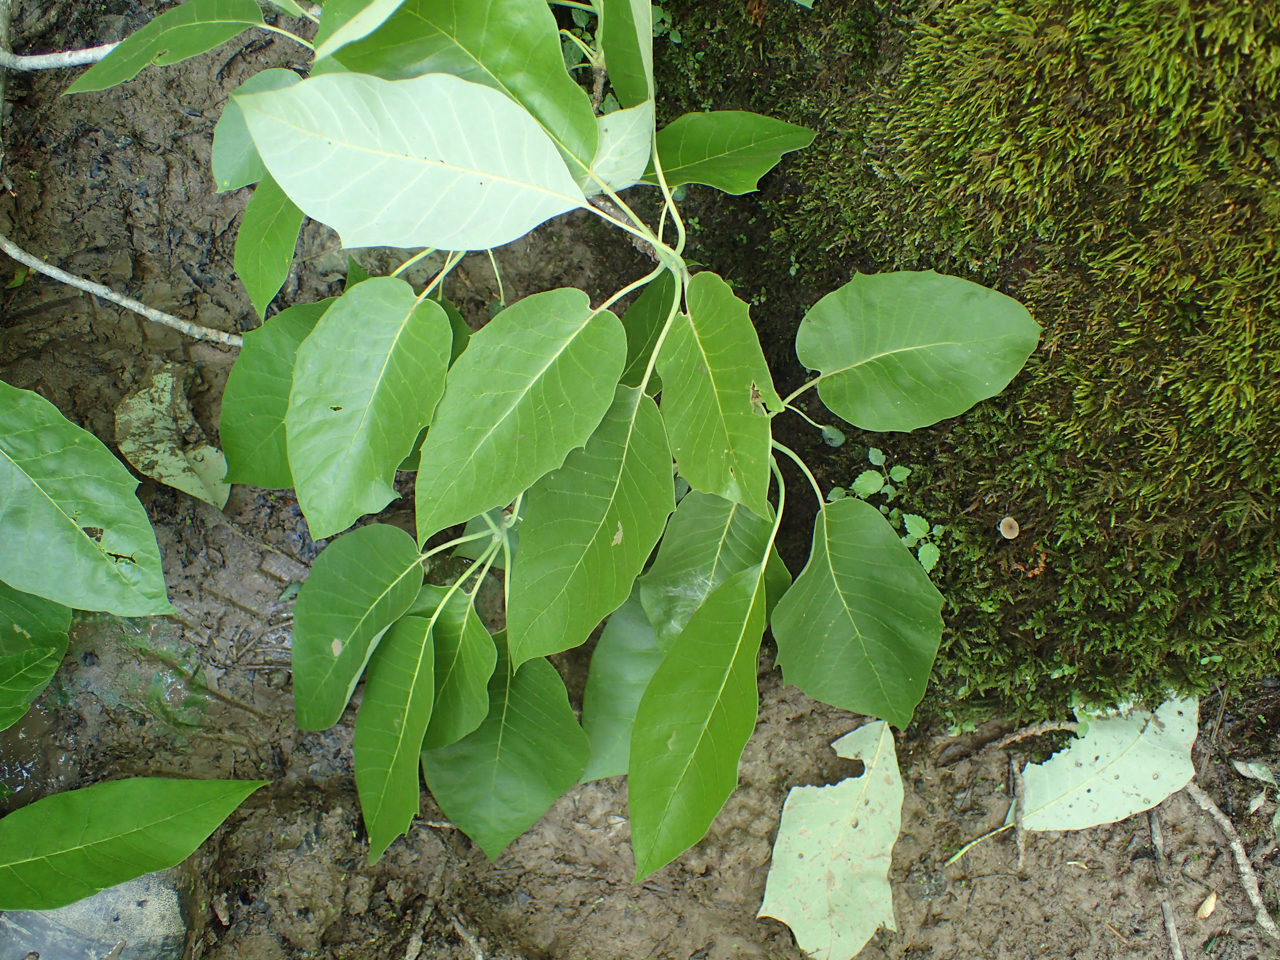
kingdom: Plantae
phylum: Tracheophyta
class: Magnoliopsida
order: Cornales
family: Nyssaceae
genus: Nyssa
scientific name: Nyssa biflora
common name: Swamp blackgum
